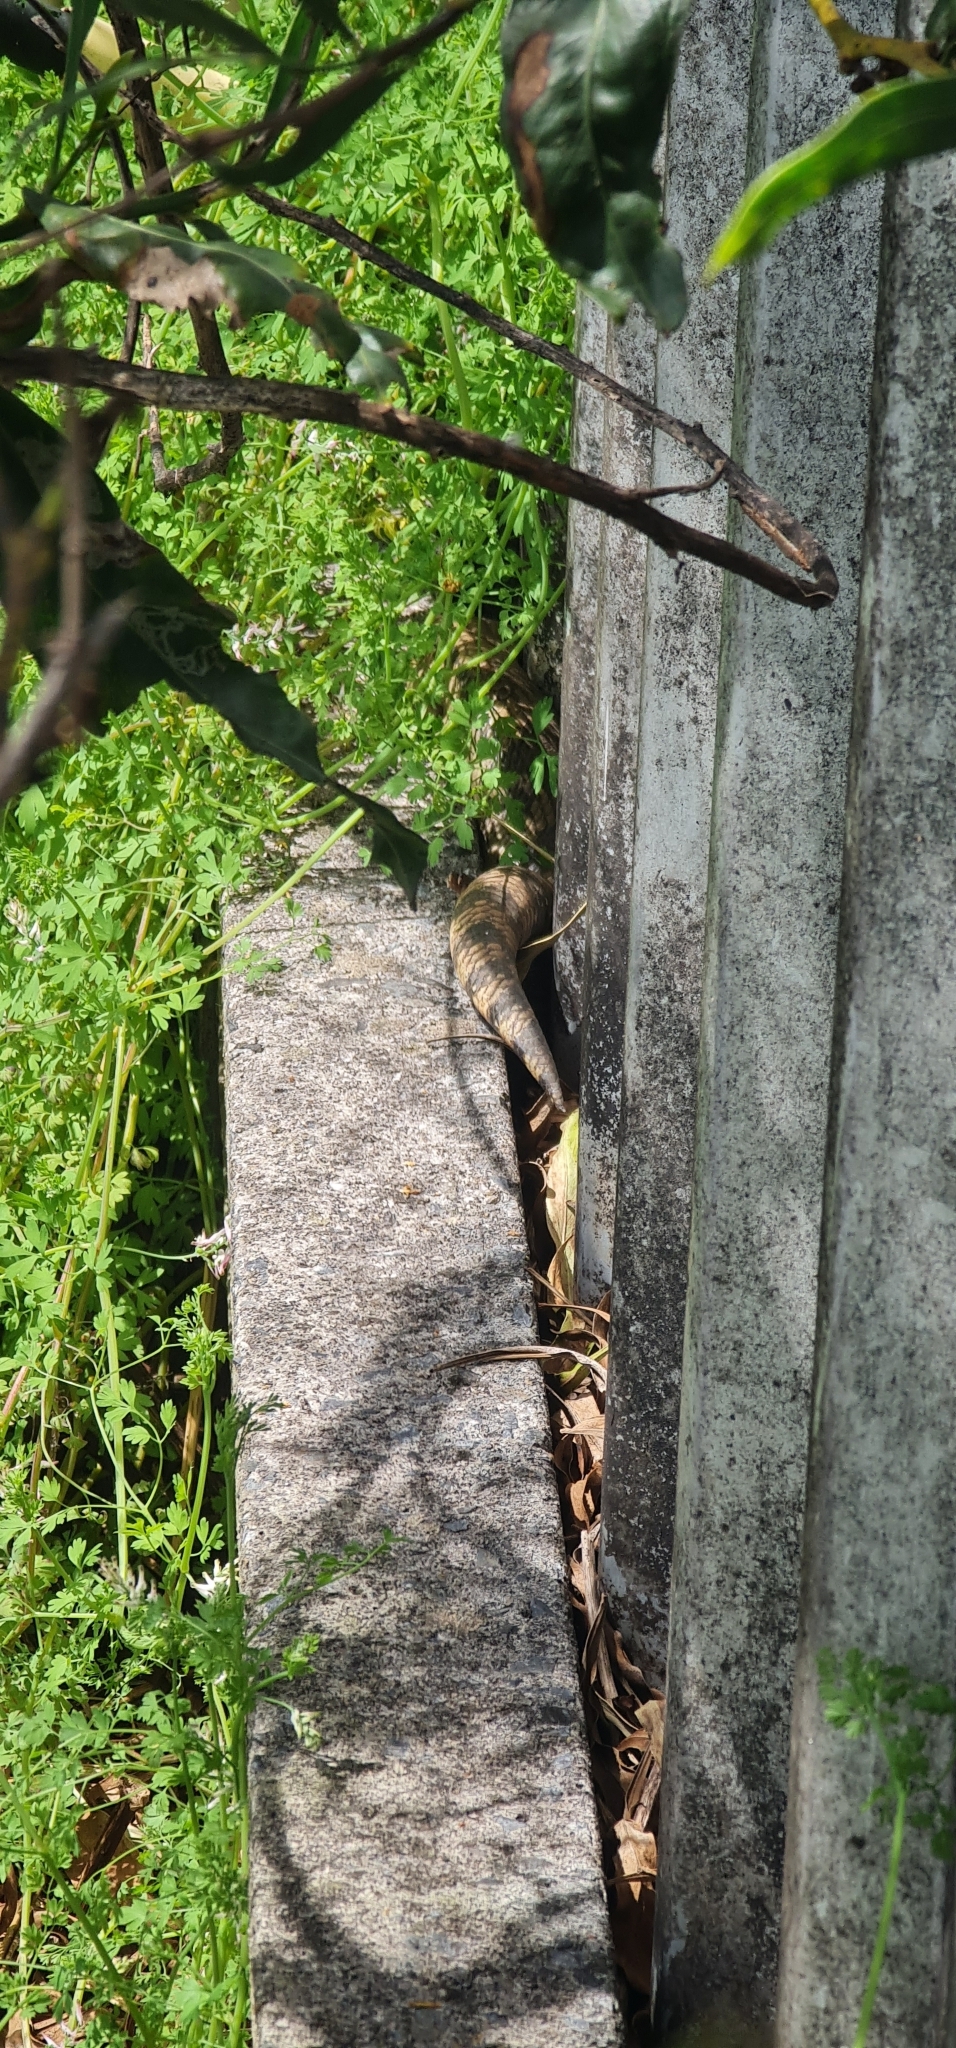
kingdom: Animalia
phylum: Chordata
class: Squamata
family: Scincidae
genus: Tiliqua
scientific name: Tiliqua scincoides
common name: Common bluetongue
